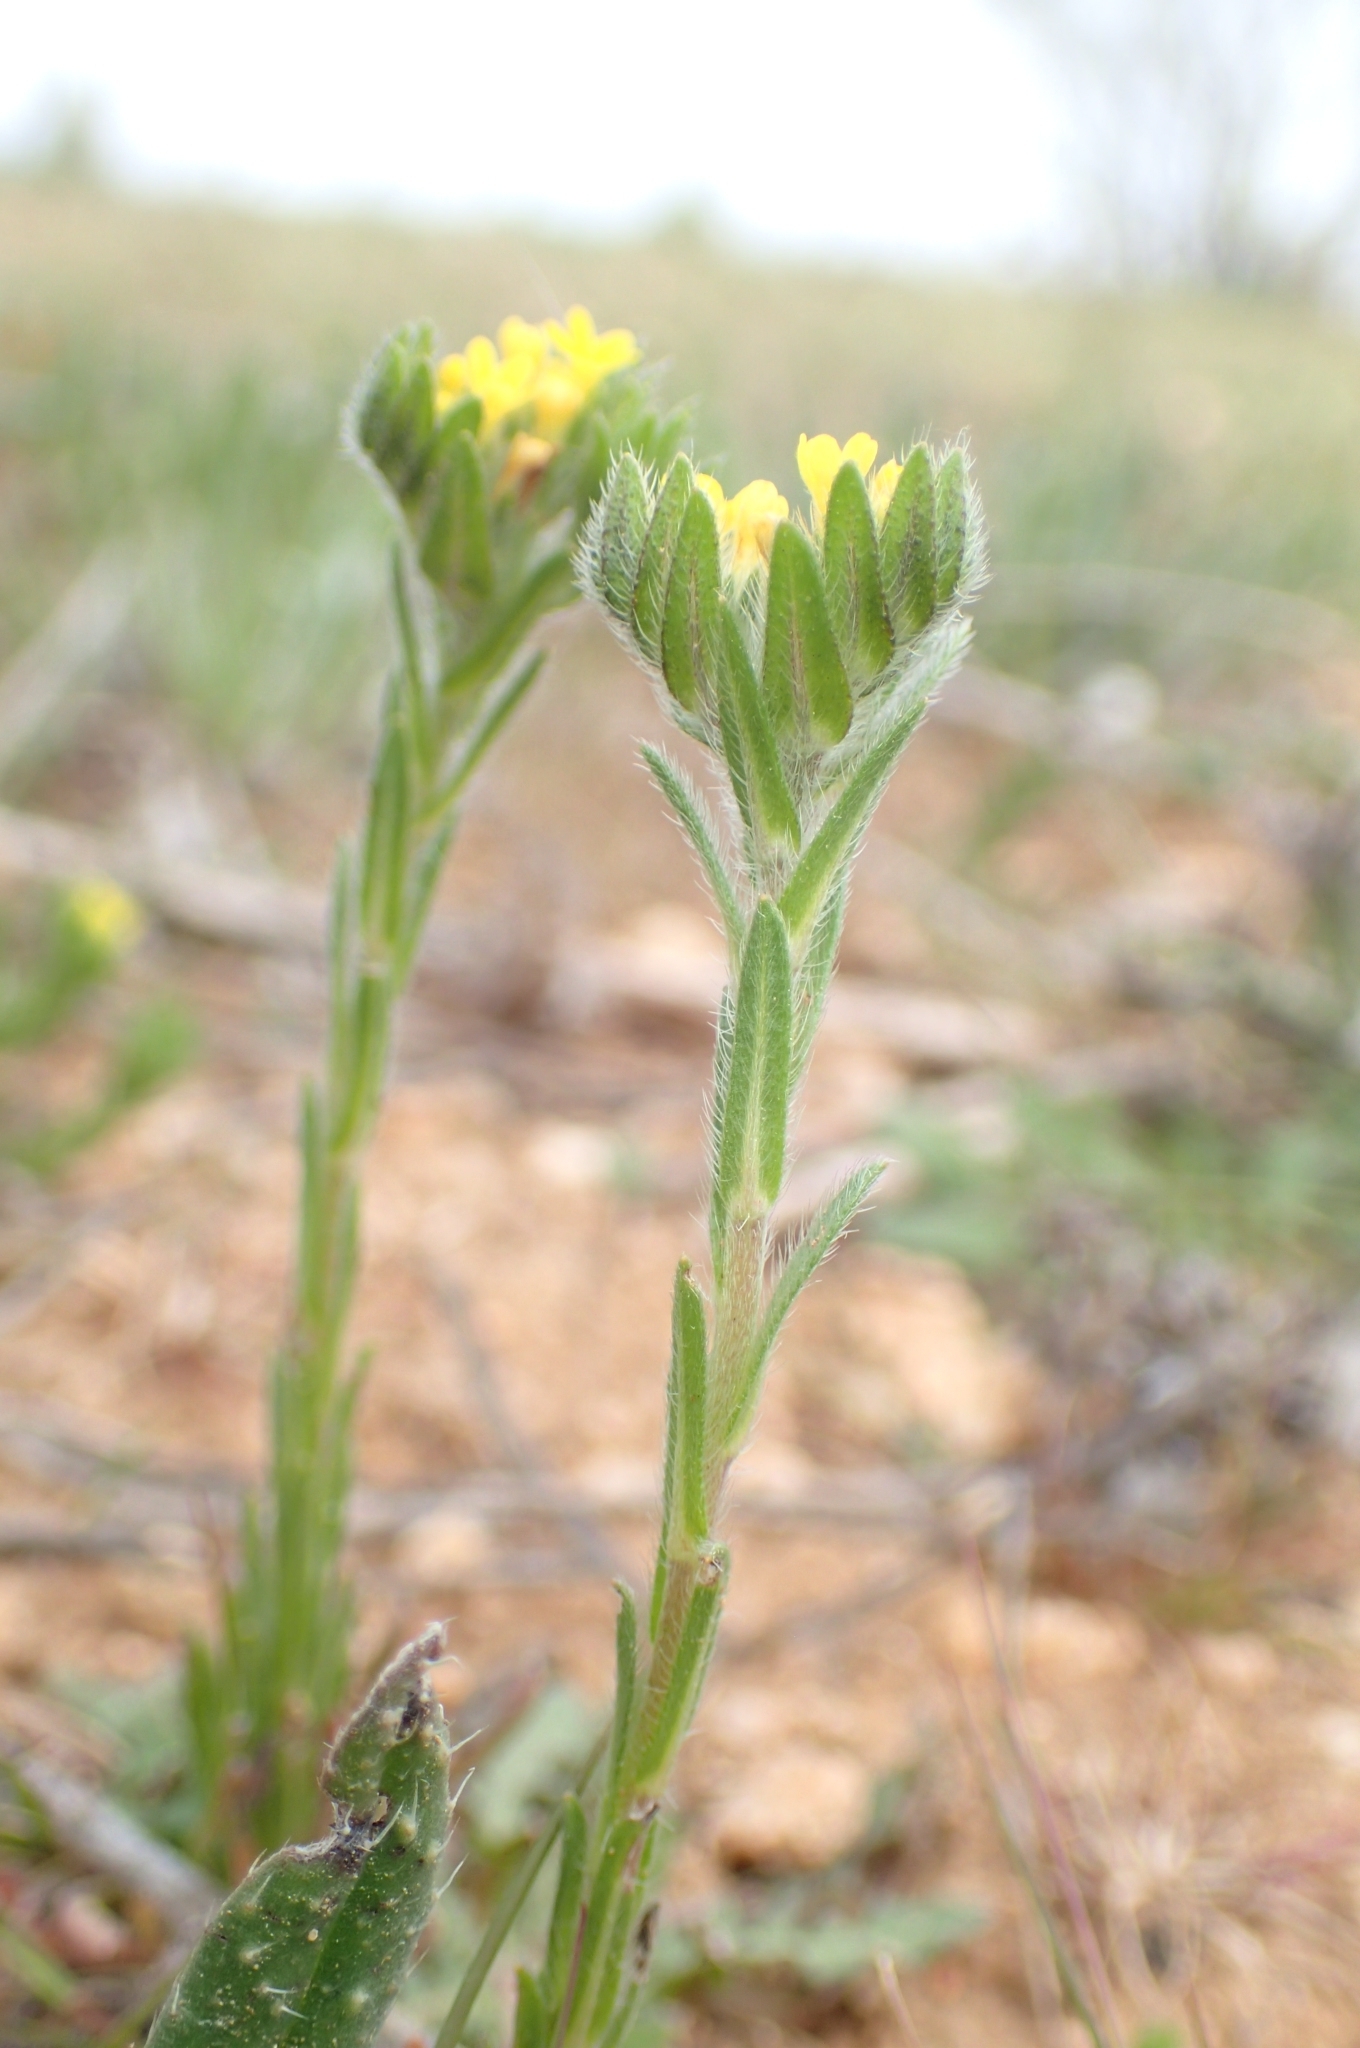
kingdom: Plantae
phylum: Tracheophyta
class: Magnoliopsida
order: Boraginales
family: Boraginaceae
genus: Neatostema
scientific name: Neatostema apulum
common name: Hairy sheepweed
